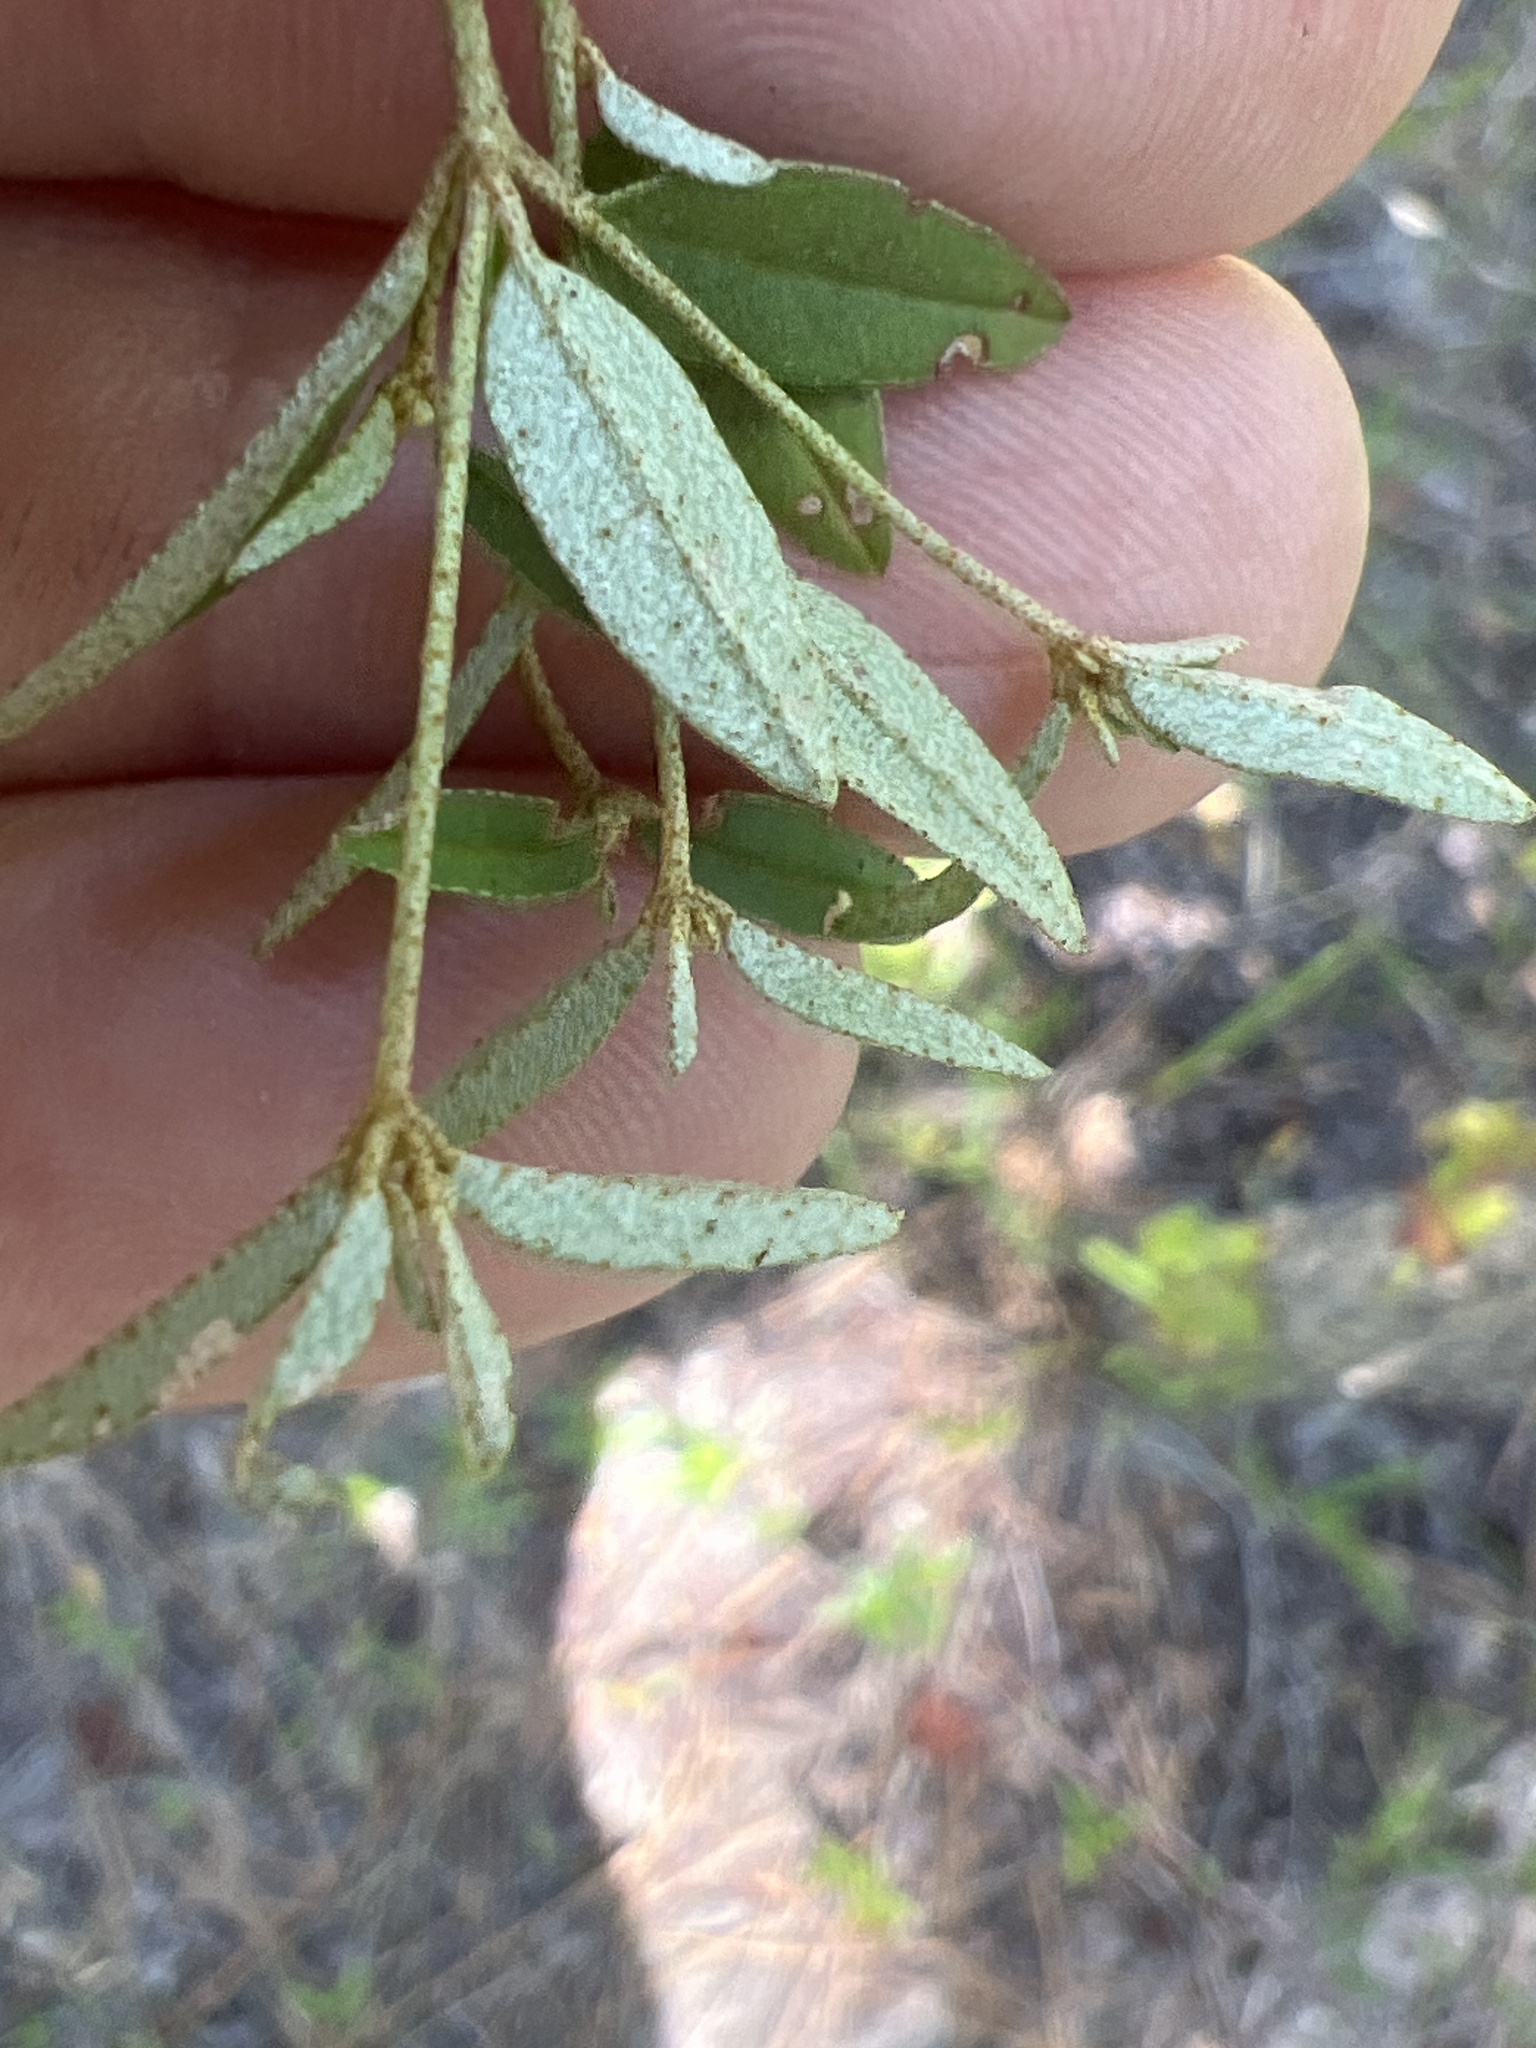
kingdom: Plantae
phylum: Tracheophyta
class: Magnoliopsida
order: Malpighiales
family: Euphorbiaceae
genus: Croton
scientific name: Croton michauxii
